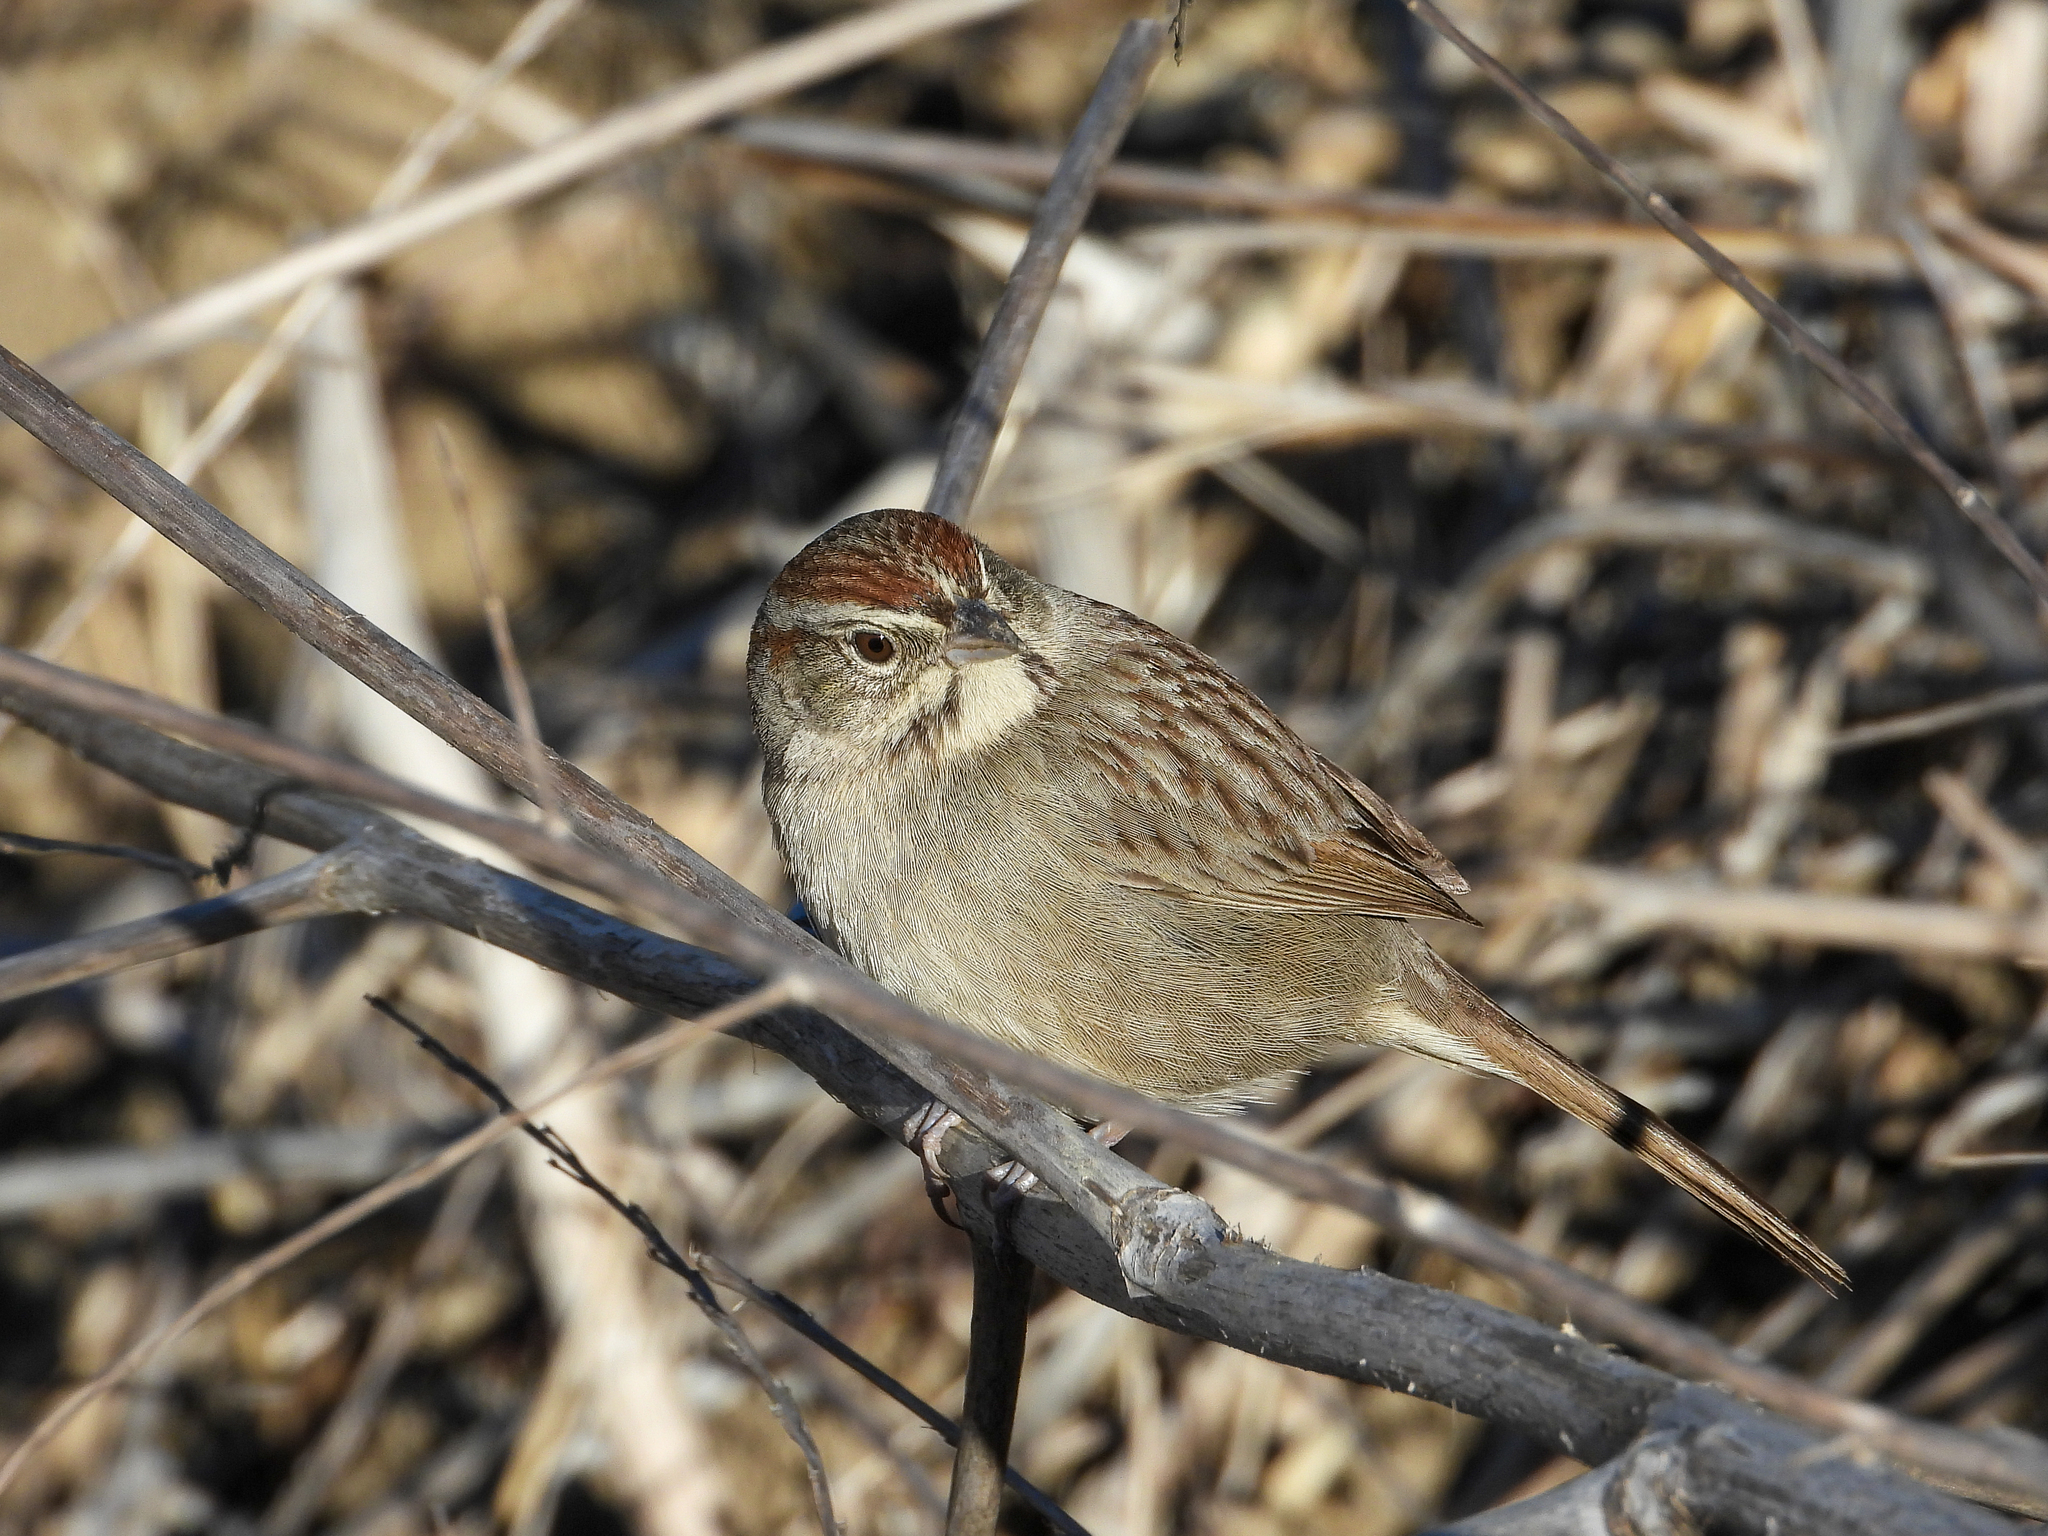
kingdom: Animalia
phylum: Chordata
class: Aves
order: Passeriformes
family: Passerellidae
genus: Aimophila
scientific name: Aimophila ruficeps
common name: Rufous-crowned sparrow
